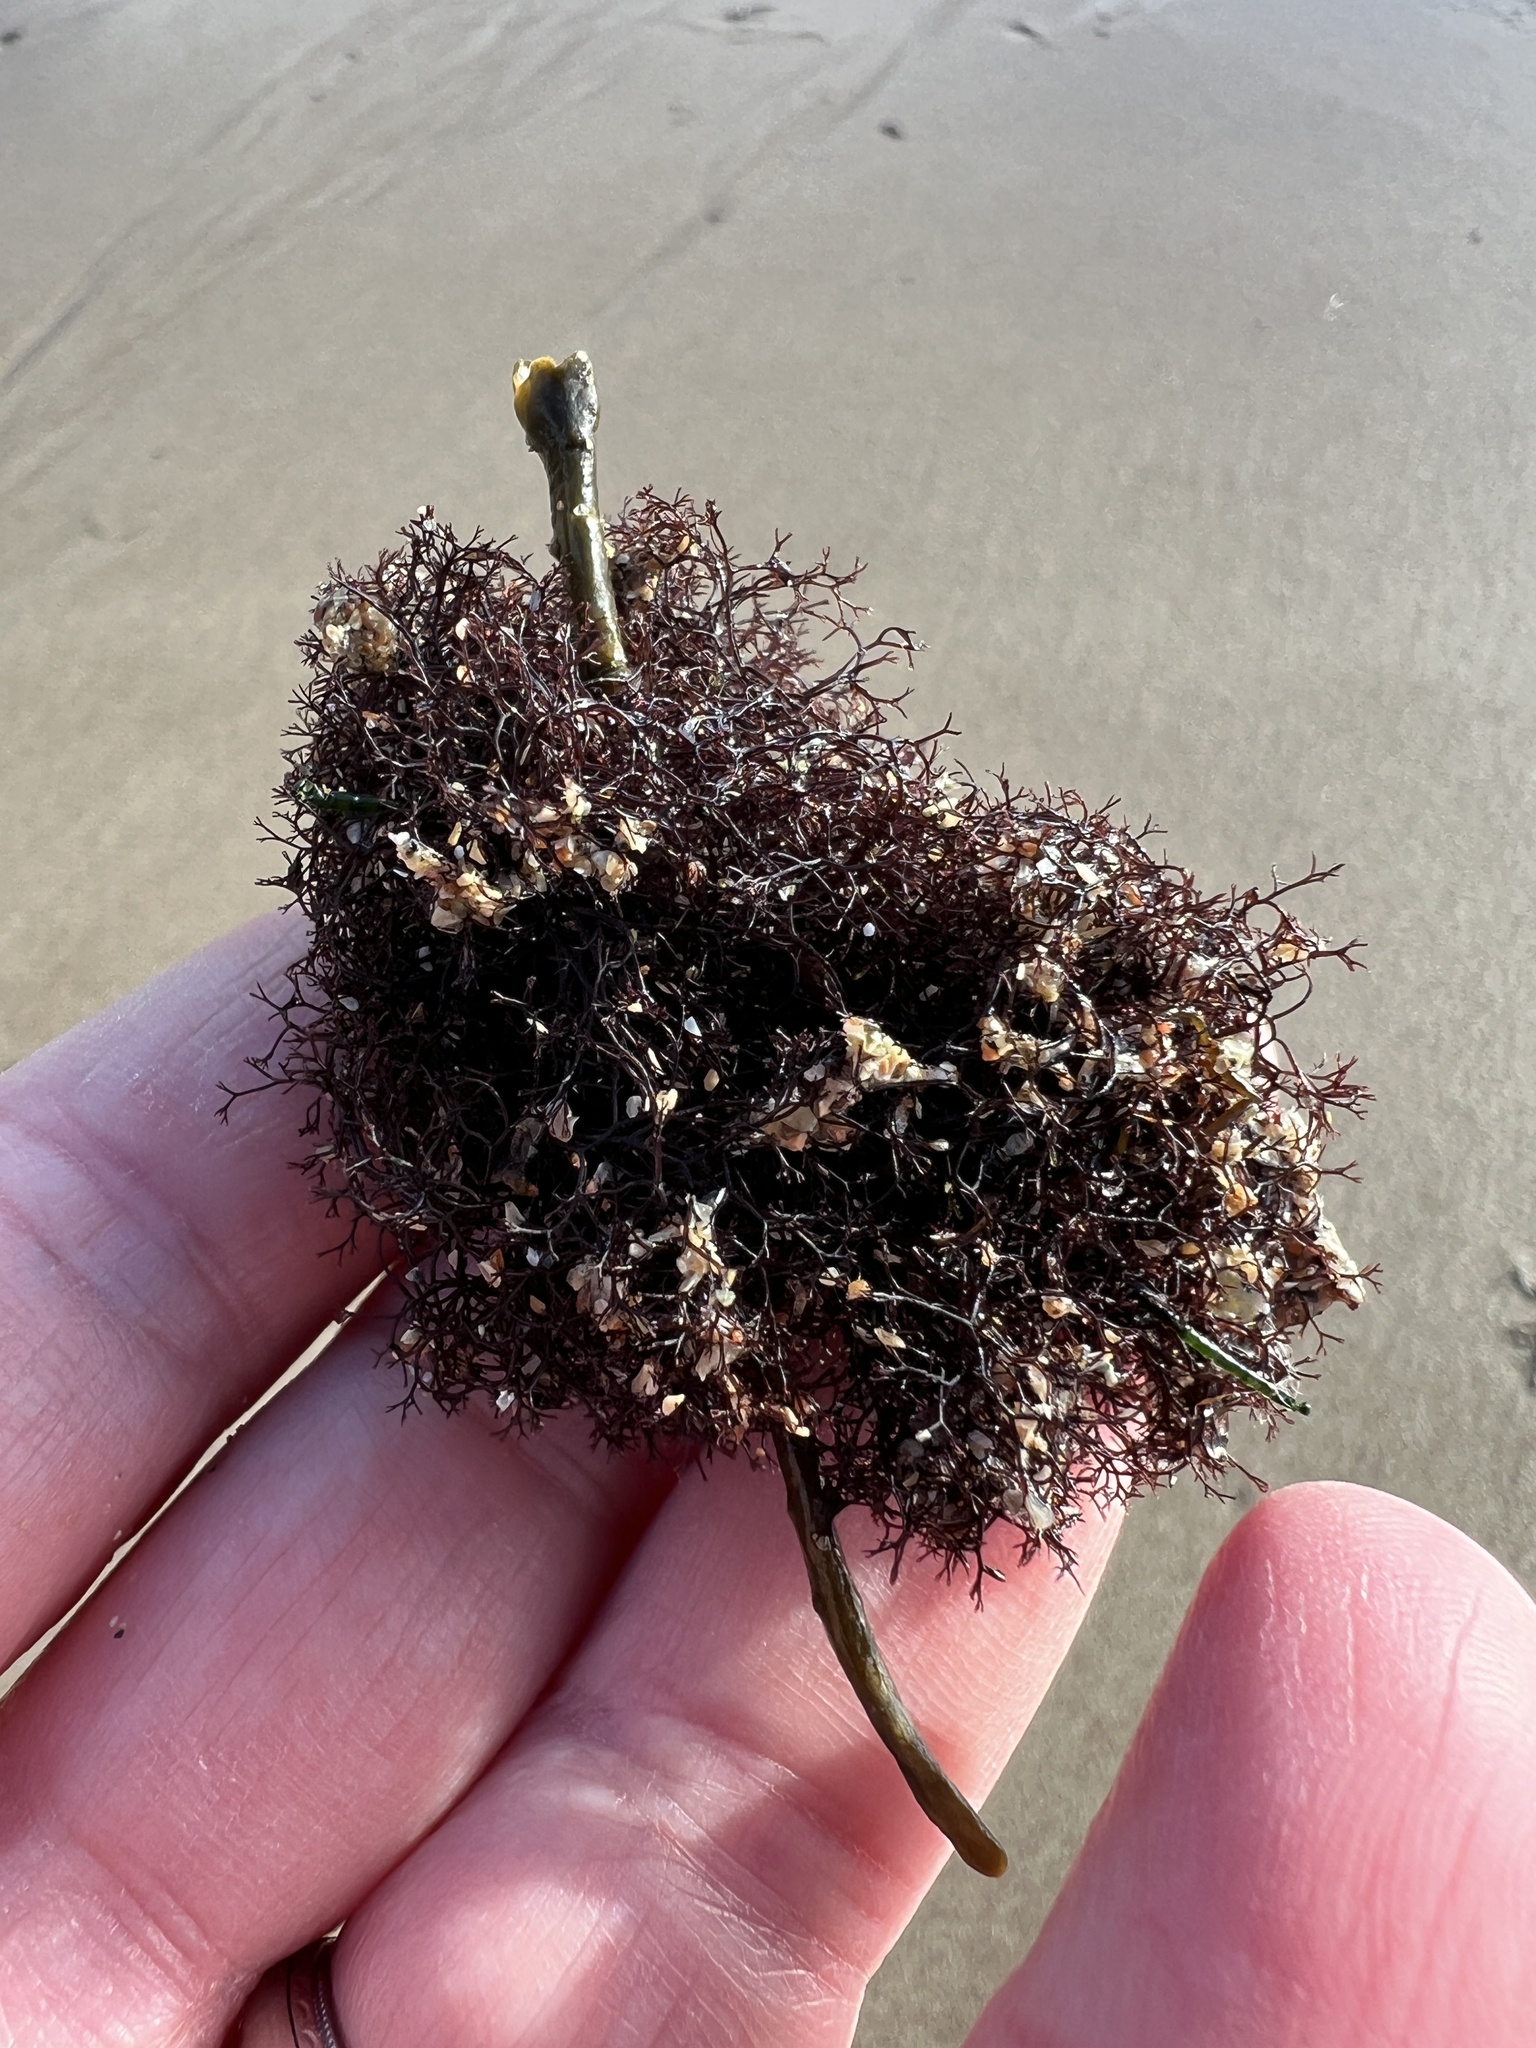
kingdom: Plantae
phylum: Rhodophyta
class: Florideophyceae
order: Ceramiales
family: Rhodomelaceae
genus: Vertebrata
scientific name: Vertebrata lanosa
